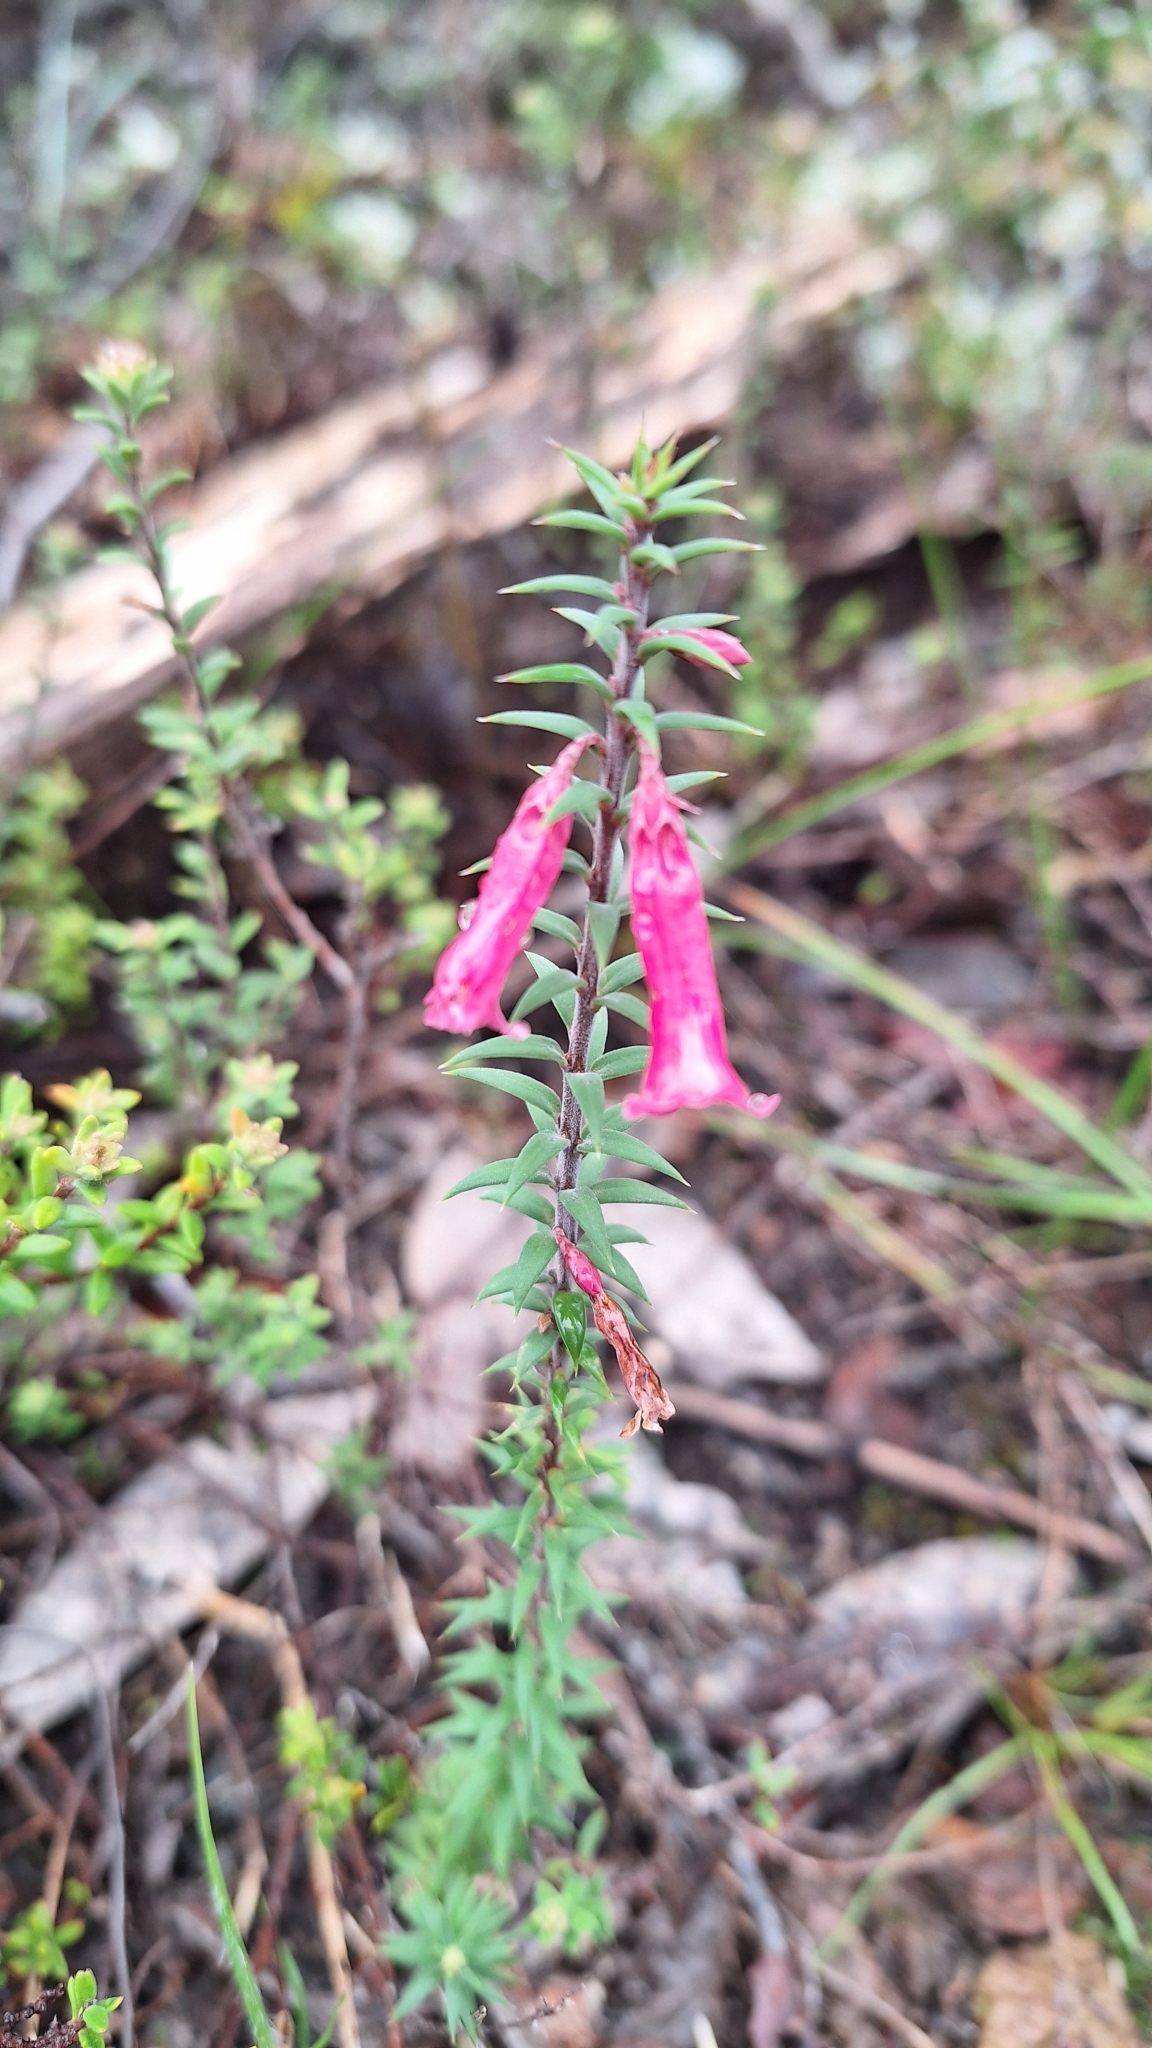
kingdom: Plantae
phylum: Tracheophyta
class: Magnoliopsida
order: Ericales
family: Ericaceae
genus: Epacris
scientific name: Epacris impressa
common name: Common-heath
